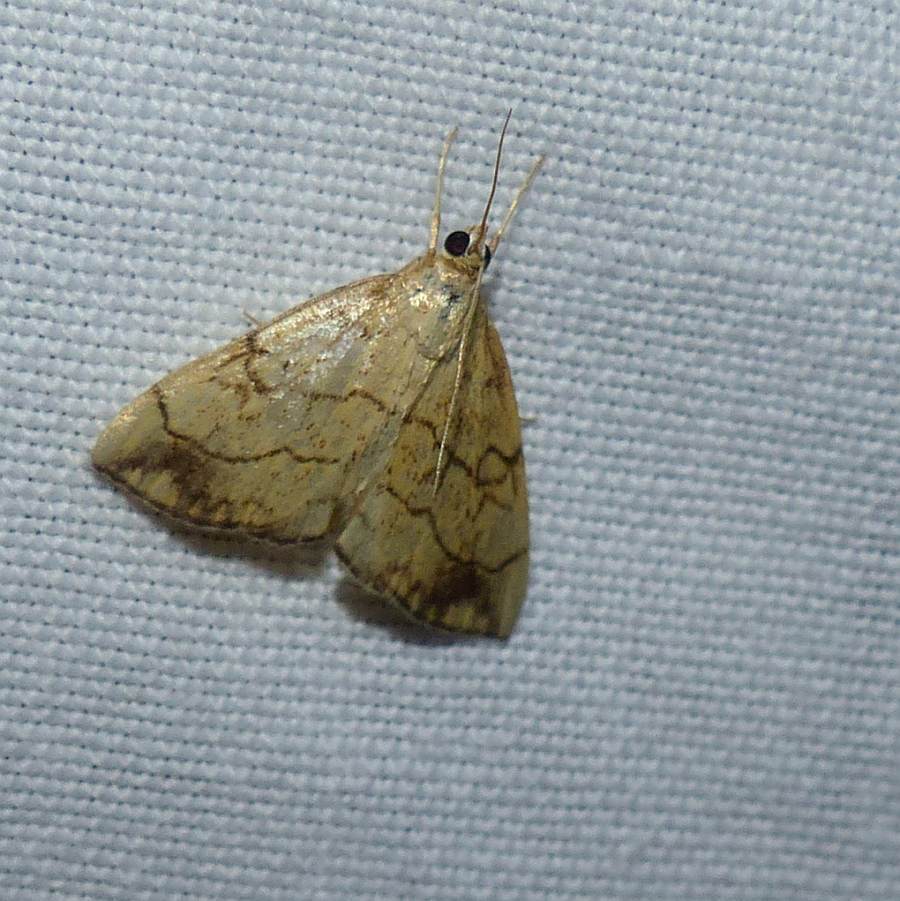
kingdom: Animalia
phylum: Arthropoda
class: Insecta
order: Lepidoptera
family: Crambidae
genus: Evergestis
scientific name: Evergestis pallidata
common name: Chequered pearl
